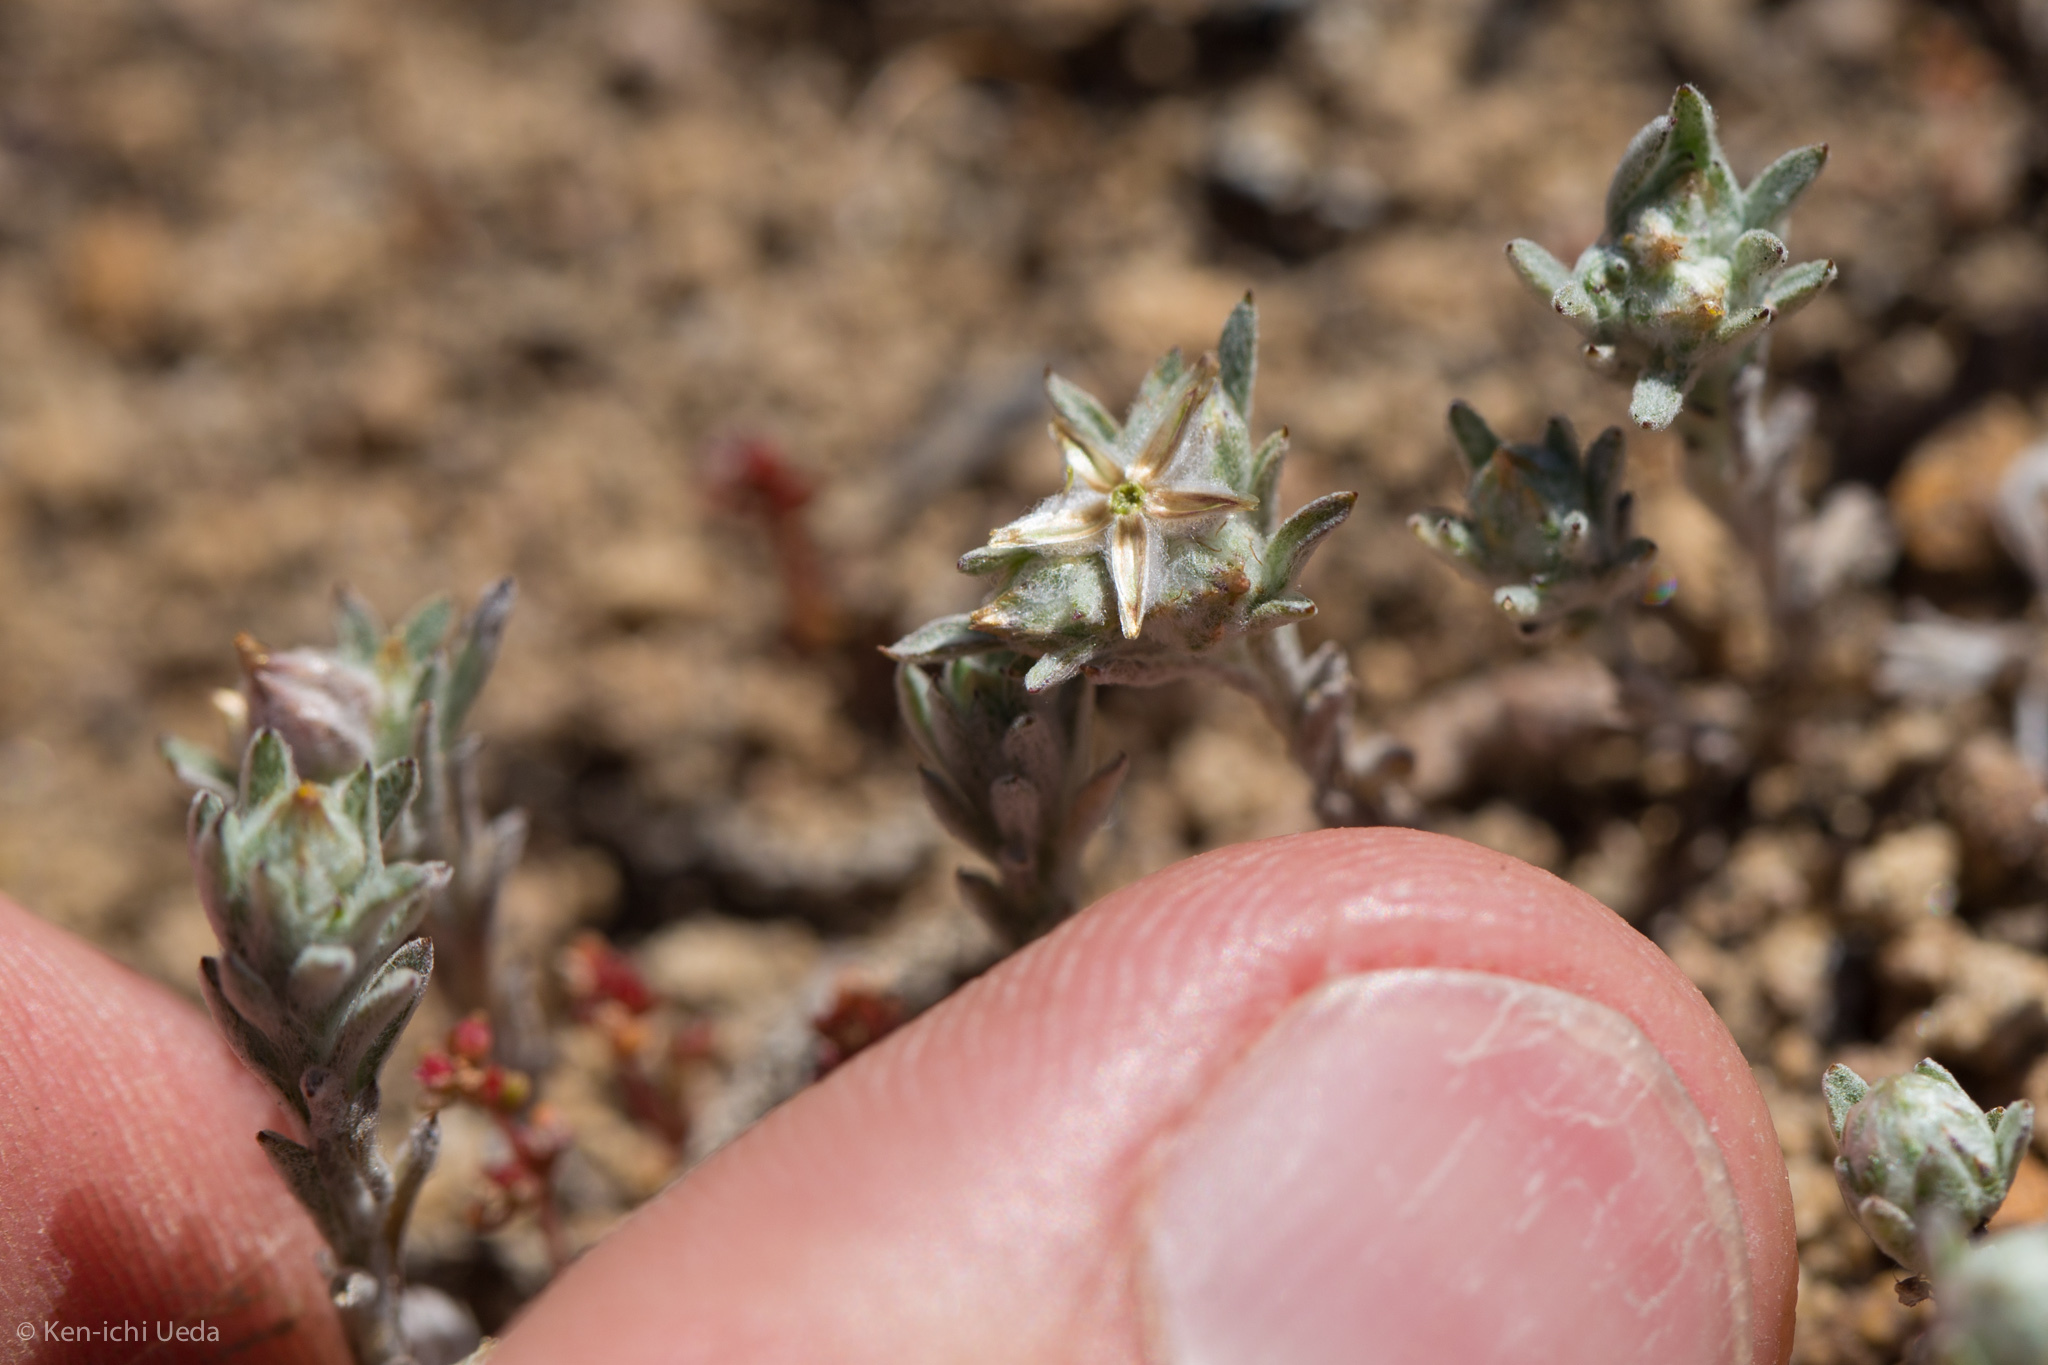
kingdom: Plantae
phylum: Tracheophyta
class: Magnoliopsida
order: Asterales
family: Asteraceae
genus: Logfia
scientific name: Logfia californica
